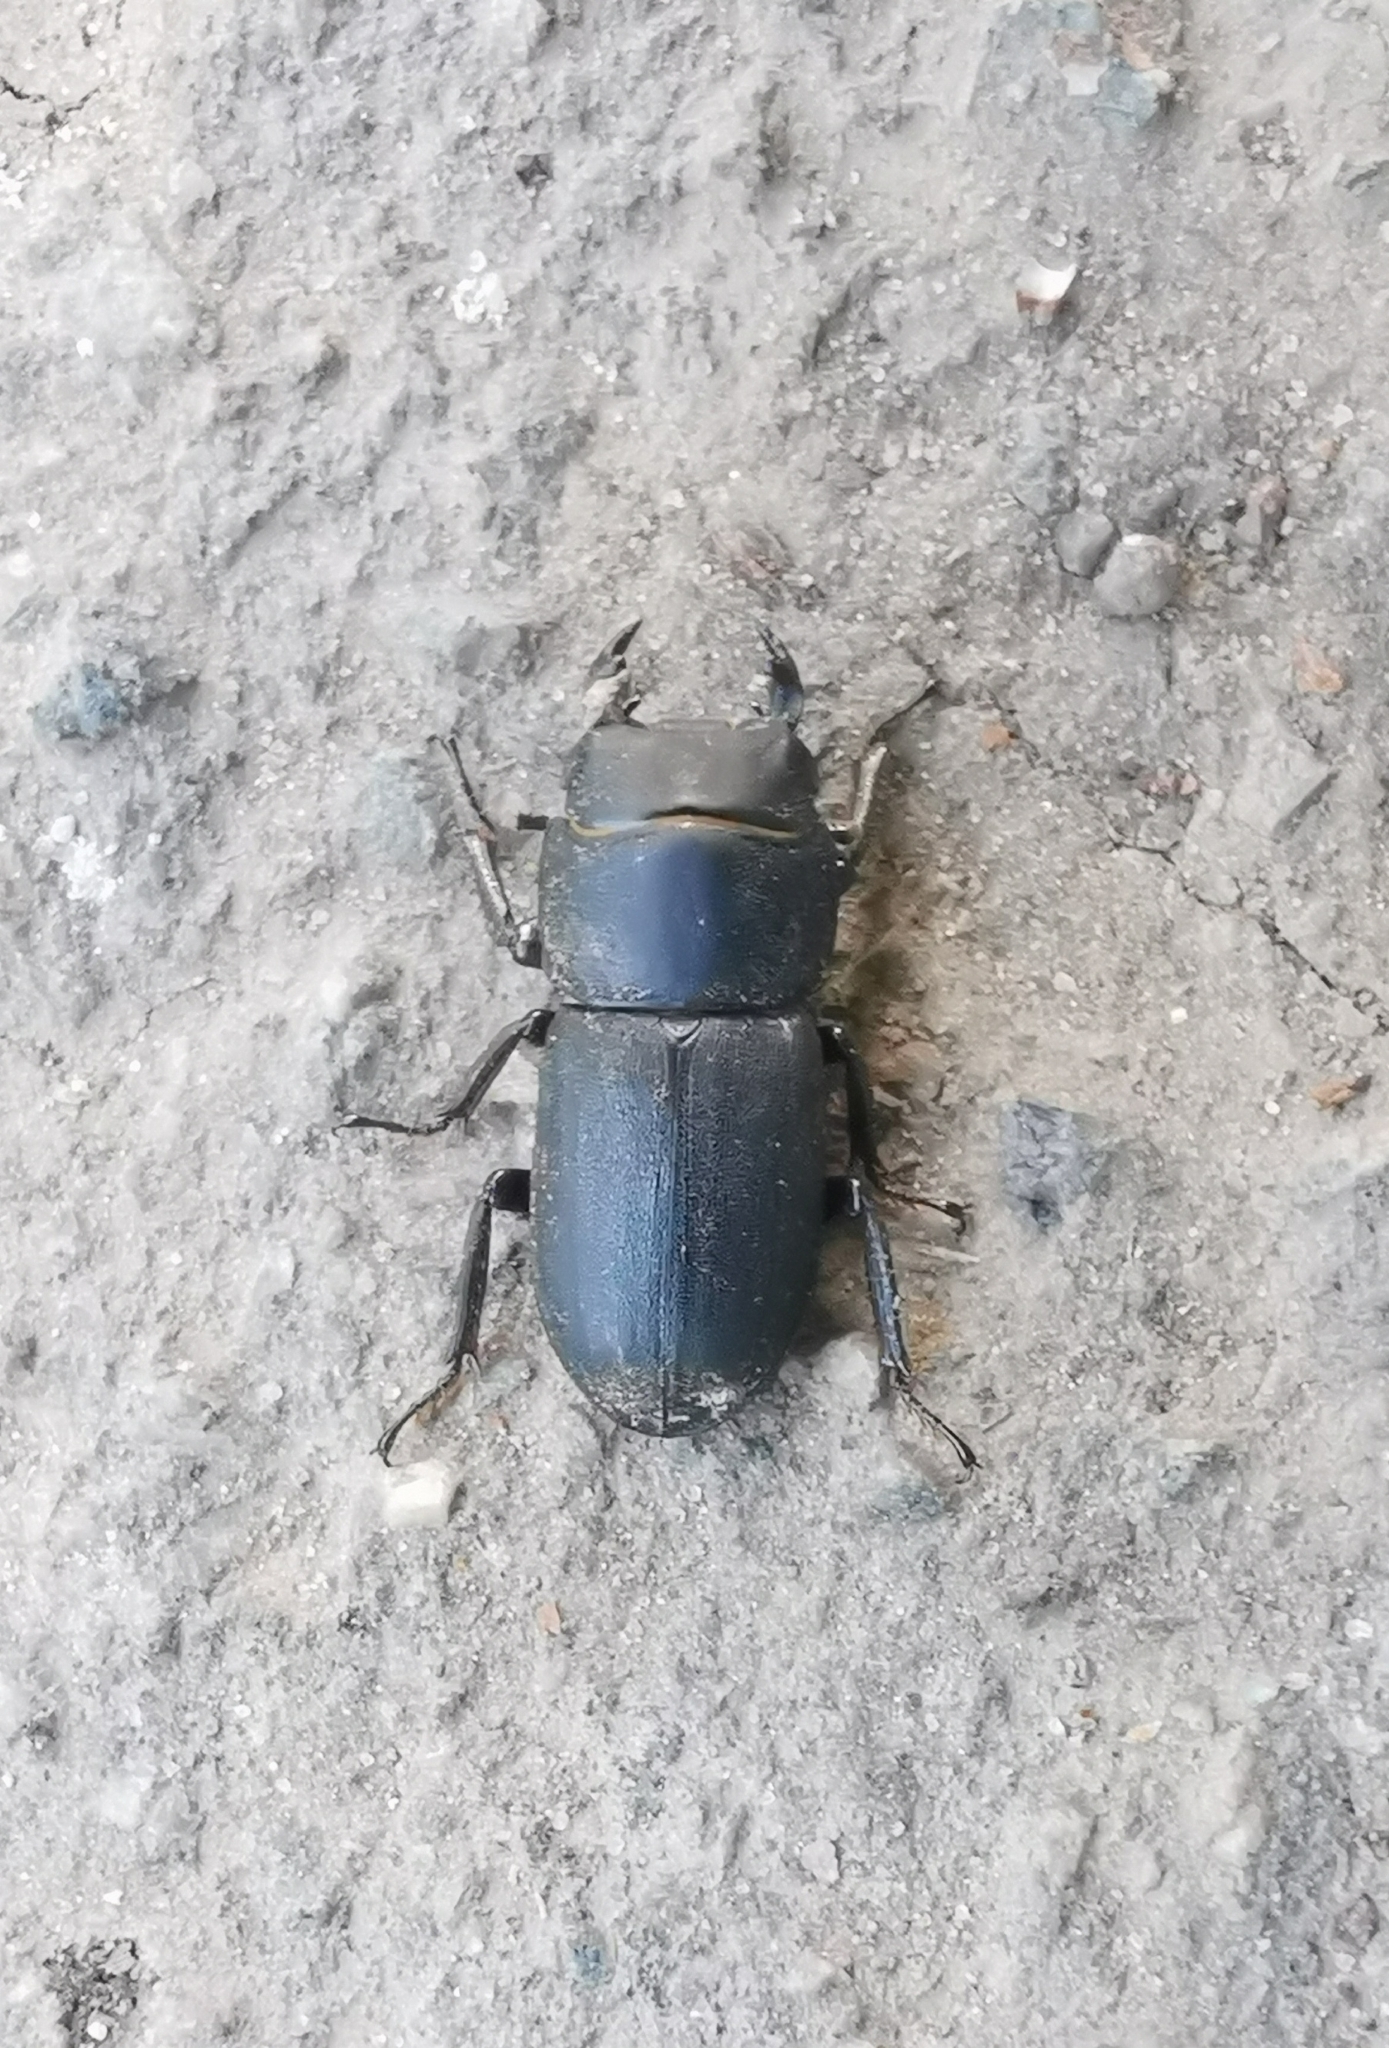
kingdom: Animalia
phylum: Arthropoda
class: Insecta
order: Coleoptera
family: Lucanidae
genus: Dorcus
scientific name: Dorcus parallelipipedus
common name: Lesser stag beetle
